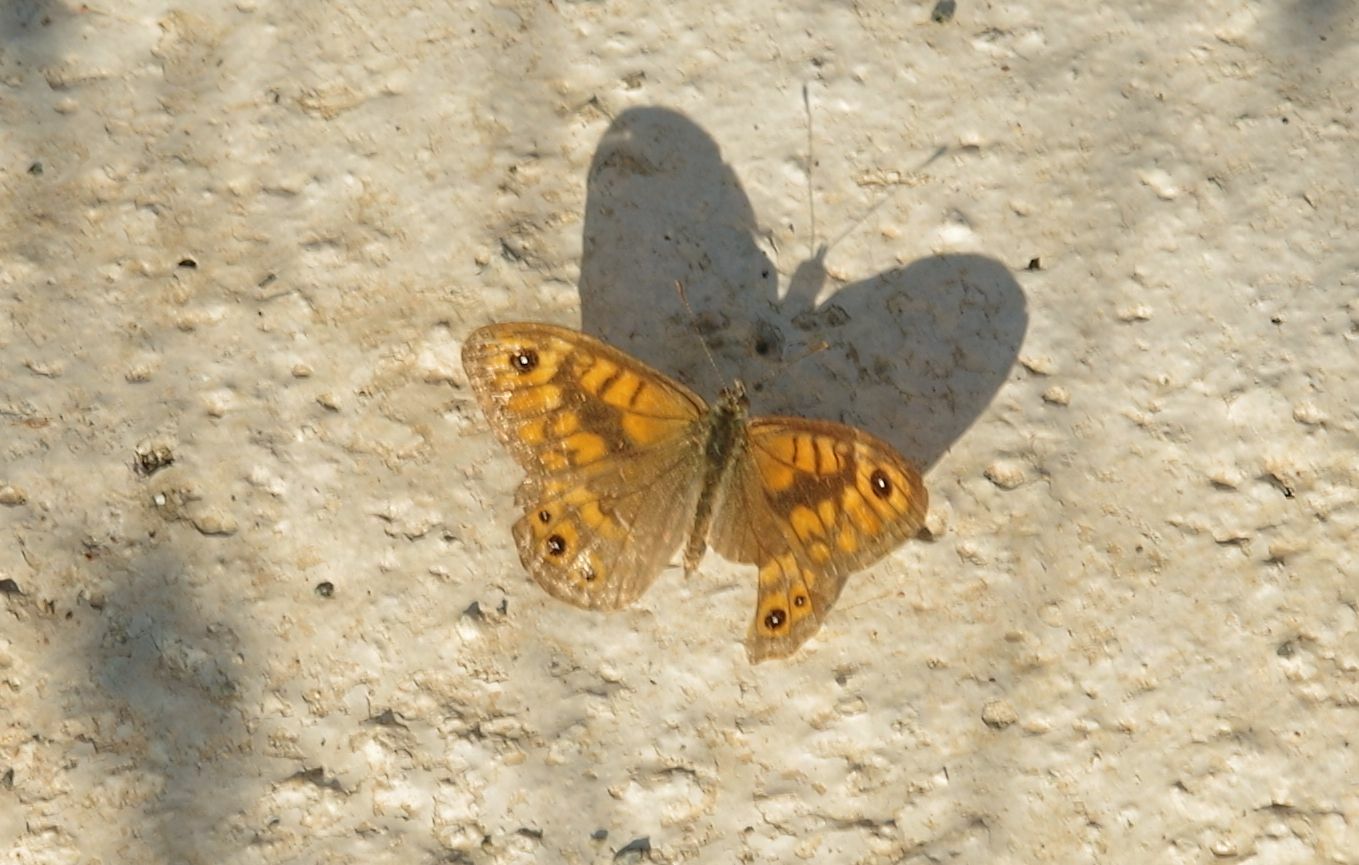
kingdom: Animalia
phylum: Arthropoda
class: Insecta
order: Lepidoptera
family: Nymphalidae
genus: Pararge
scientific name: Pararge Lasiommata megera
